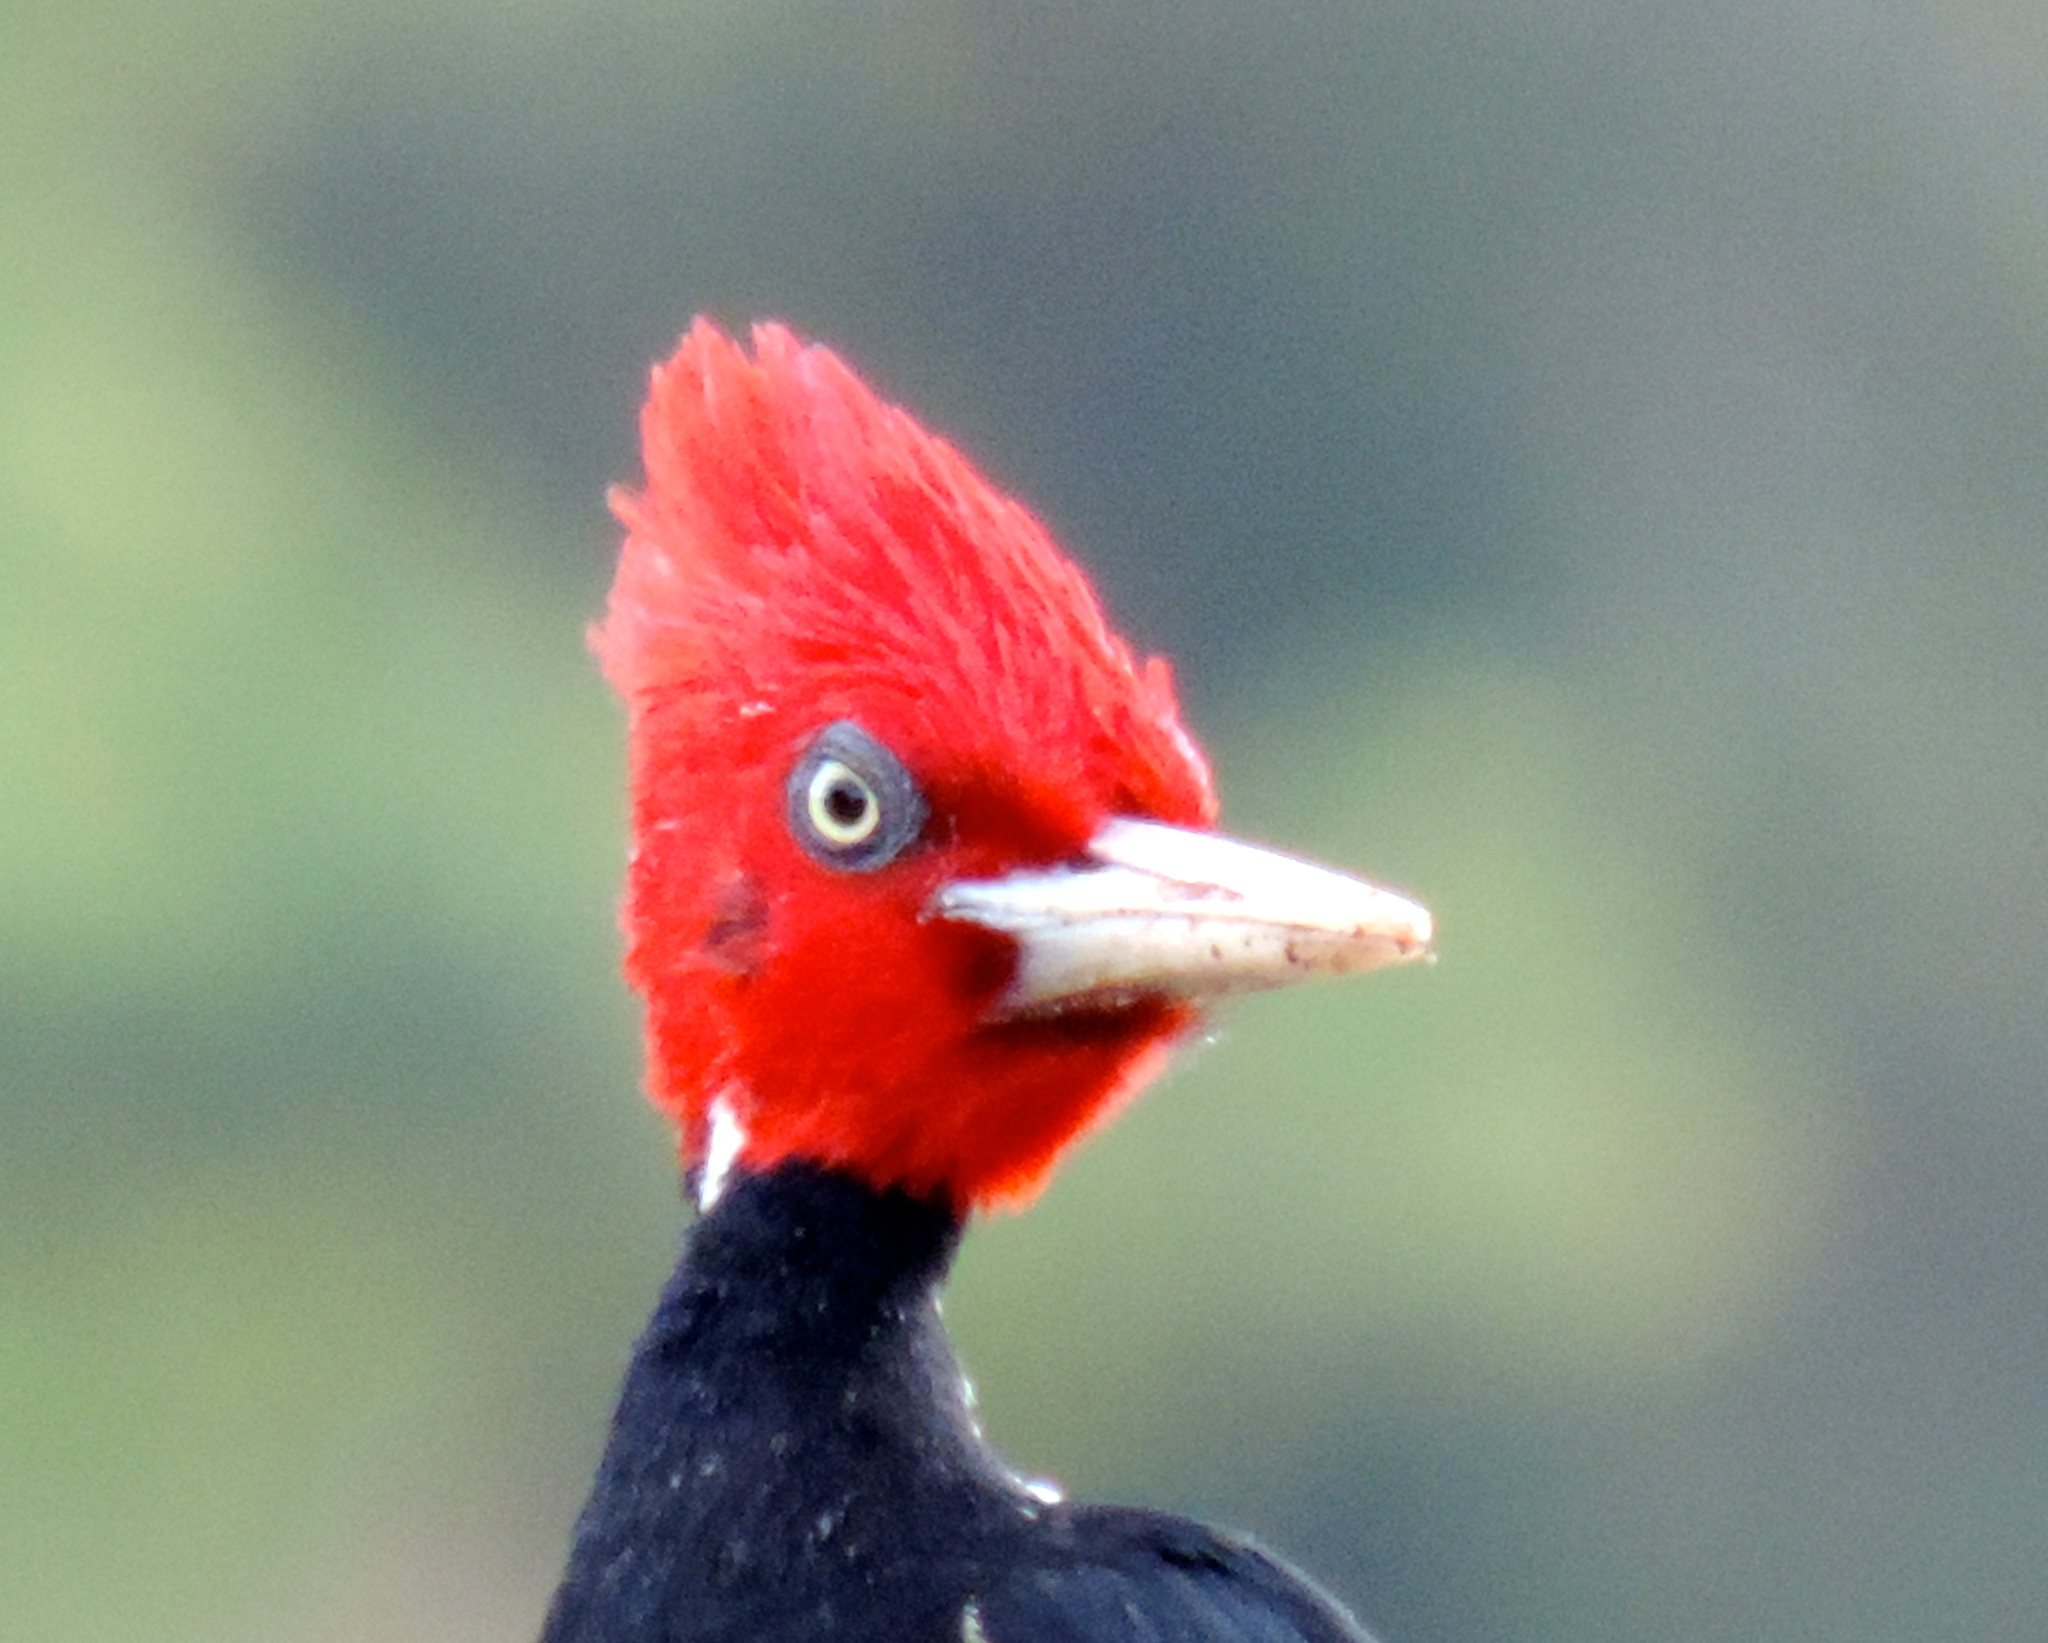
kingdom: Animalia
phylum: Chordata
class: Aves
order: Piciformes
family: Picidae
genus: Campephilus
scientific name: Campephilus guatemalensis
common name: Pale-billed woodpecker
